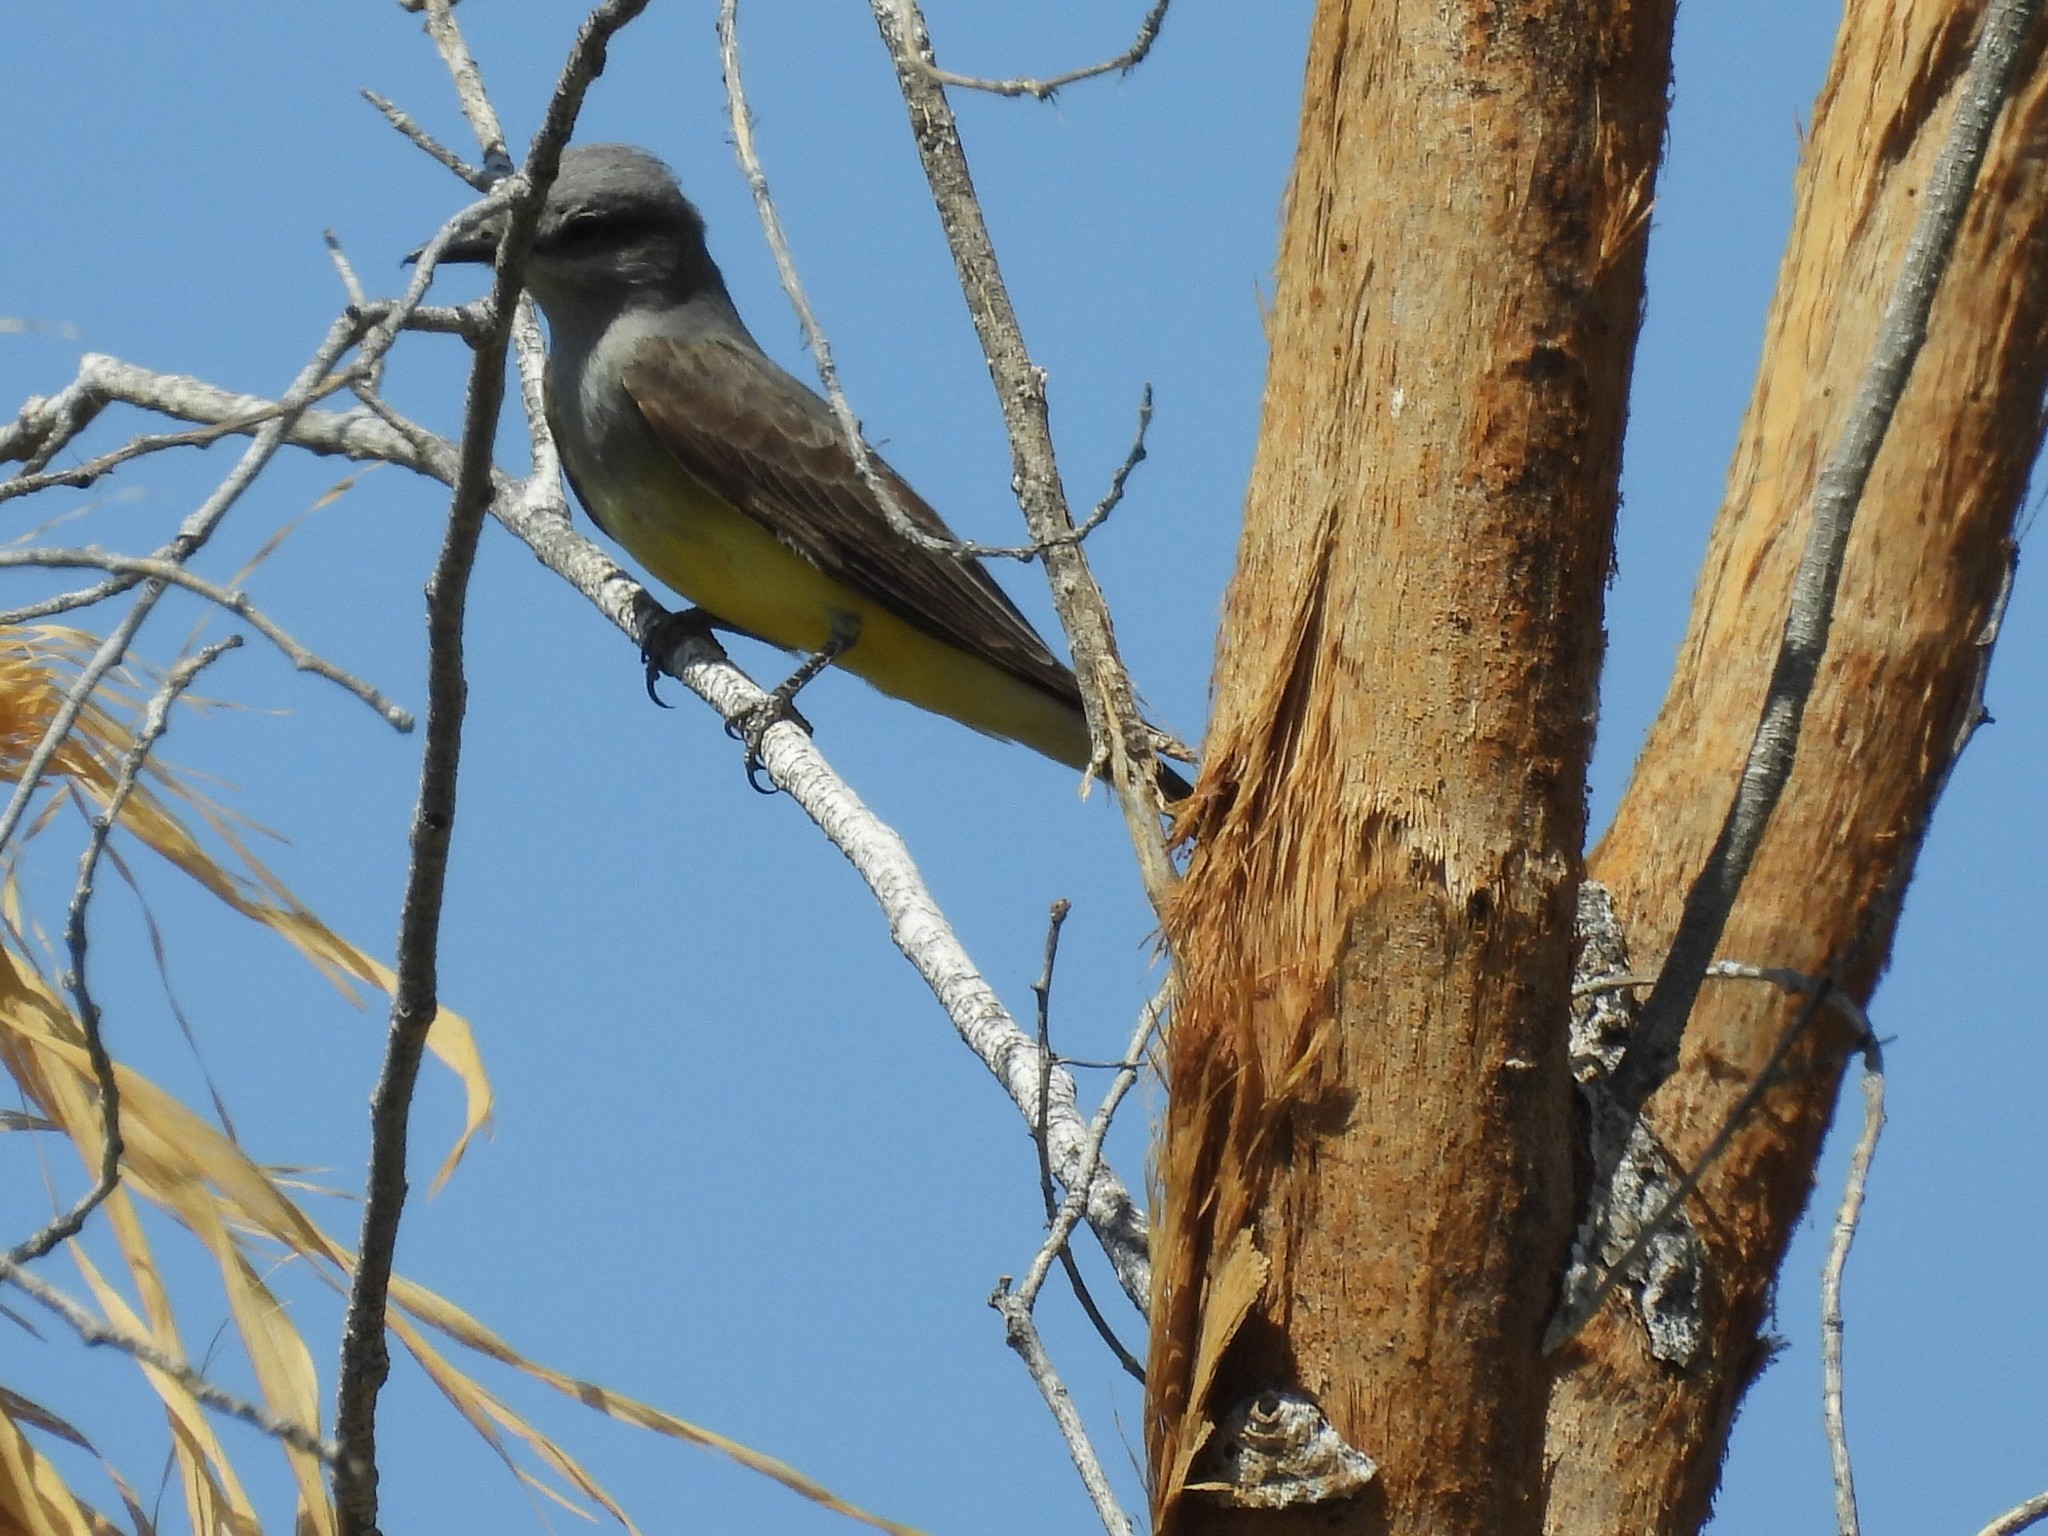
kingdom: Animalia
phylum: Chordata
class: Aves
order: Passeriformes
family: Tyrannidae
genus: Tyrannus
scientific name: Tyrannus verticalis
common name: Western kingbird
